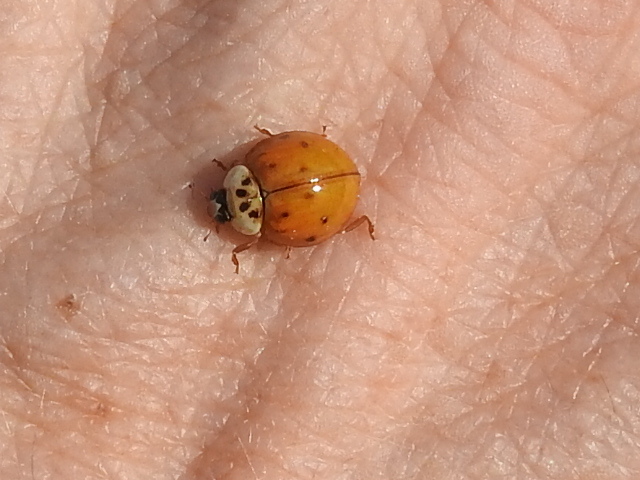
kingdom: Animalia
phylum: Arthropoda
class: Insecta
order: Coleoptera
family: Coccinellidae
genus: Harmonia
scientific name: Harmonia axyridis
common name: Harlequin ladybird
